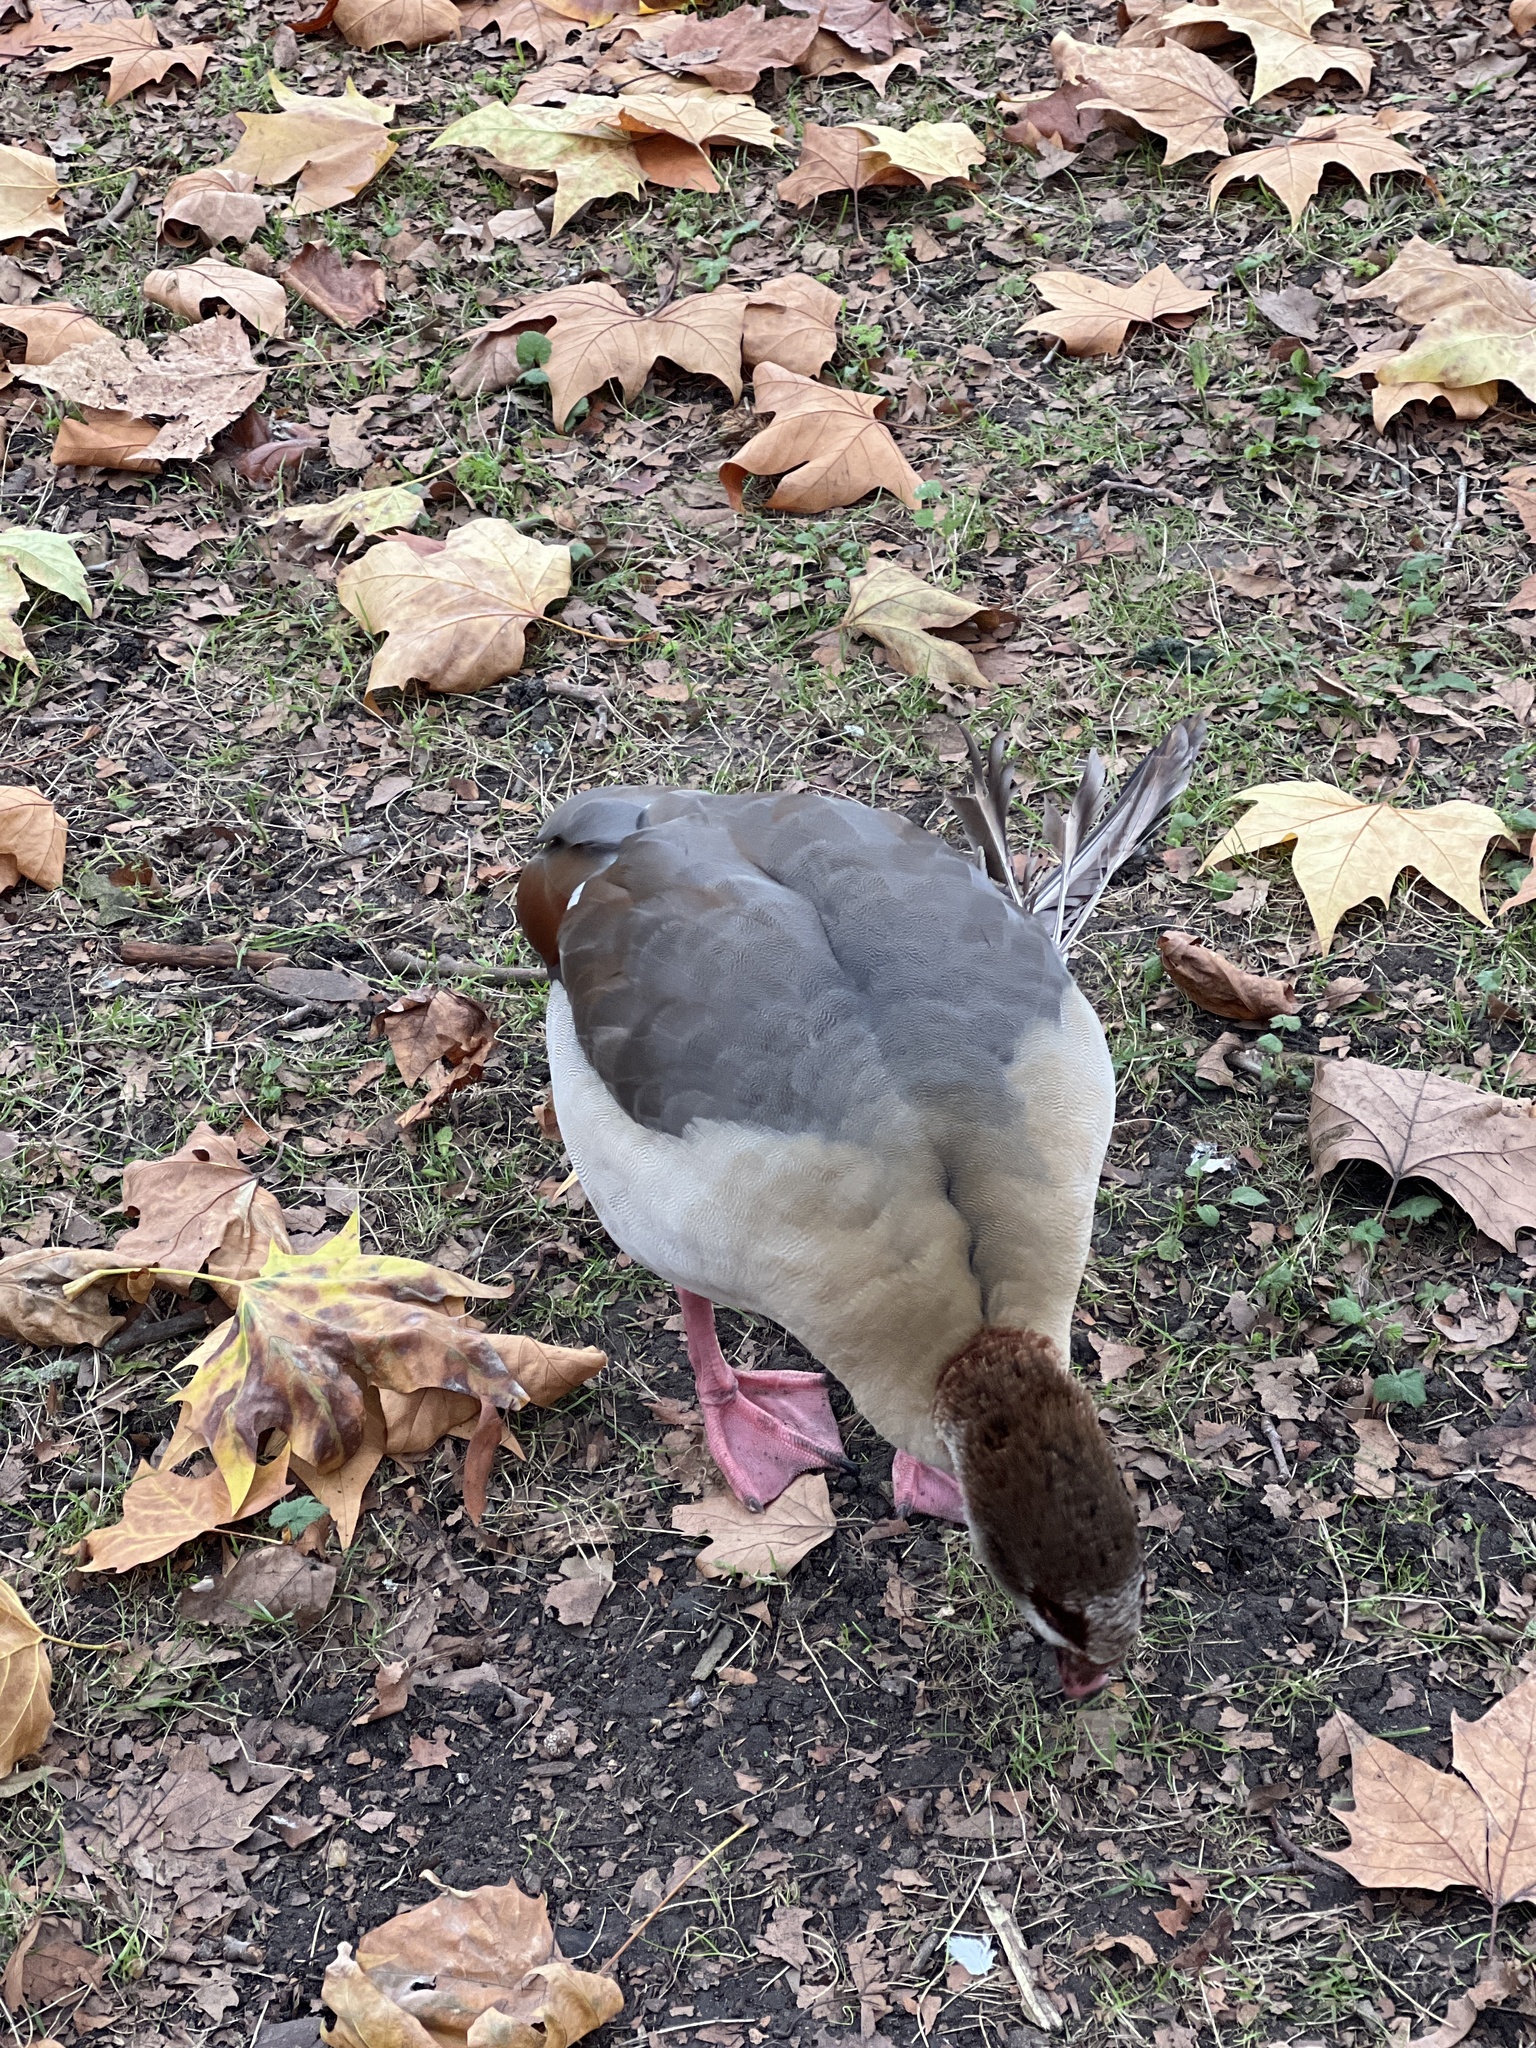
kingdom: Animalia
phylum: Chordata
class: Aves
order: Anseriformes
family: Anatidae
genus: Alopochen
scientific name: Alopochen aegyptiaca
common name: Egyptian goose
